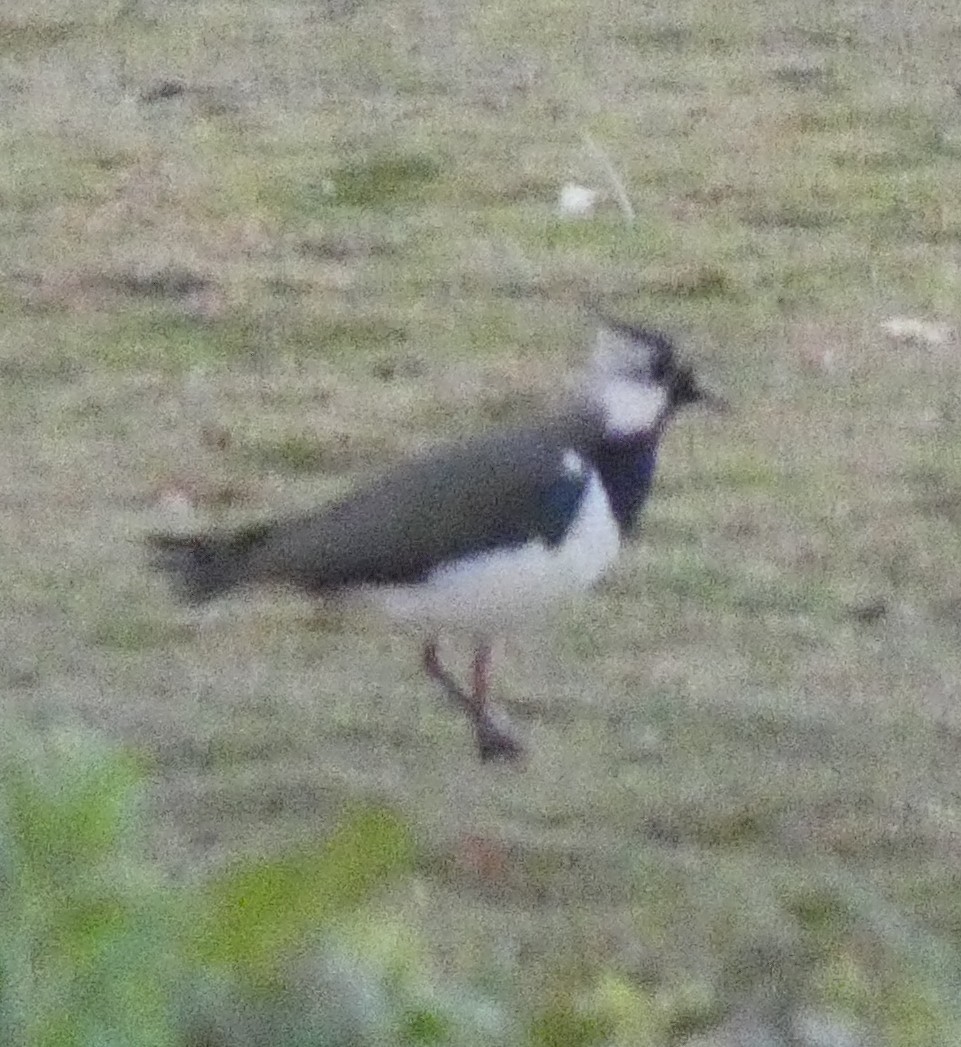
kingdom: Animalia
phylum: Chordata
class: Aves
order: Charadriiformes
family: Charadriidae
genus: Vanellus
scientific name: Vanellus vanellus
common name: Northern lapwing
